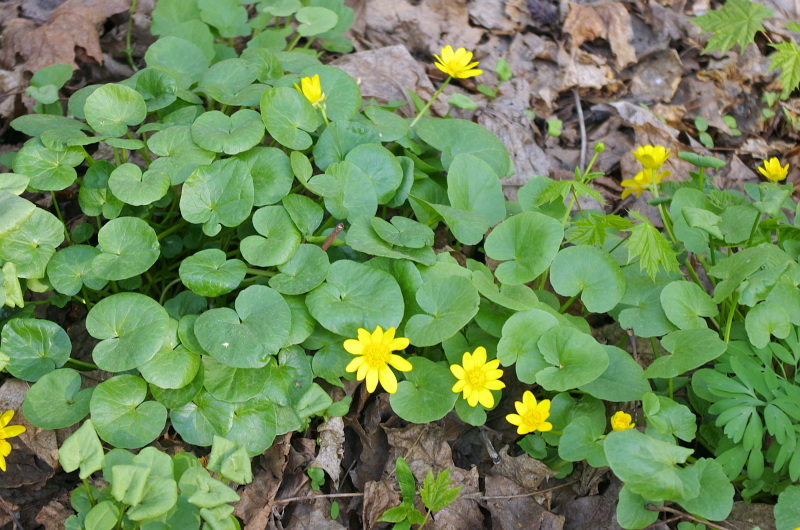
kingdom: Plantae
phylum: Tracheophyta
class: Magnoliopsida
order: Ranunculales
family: Ranunculaceae
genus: Ficaria
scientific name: Ficaria verna
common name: Lesser celandine
